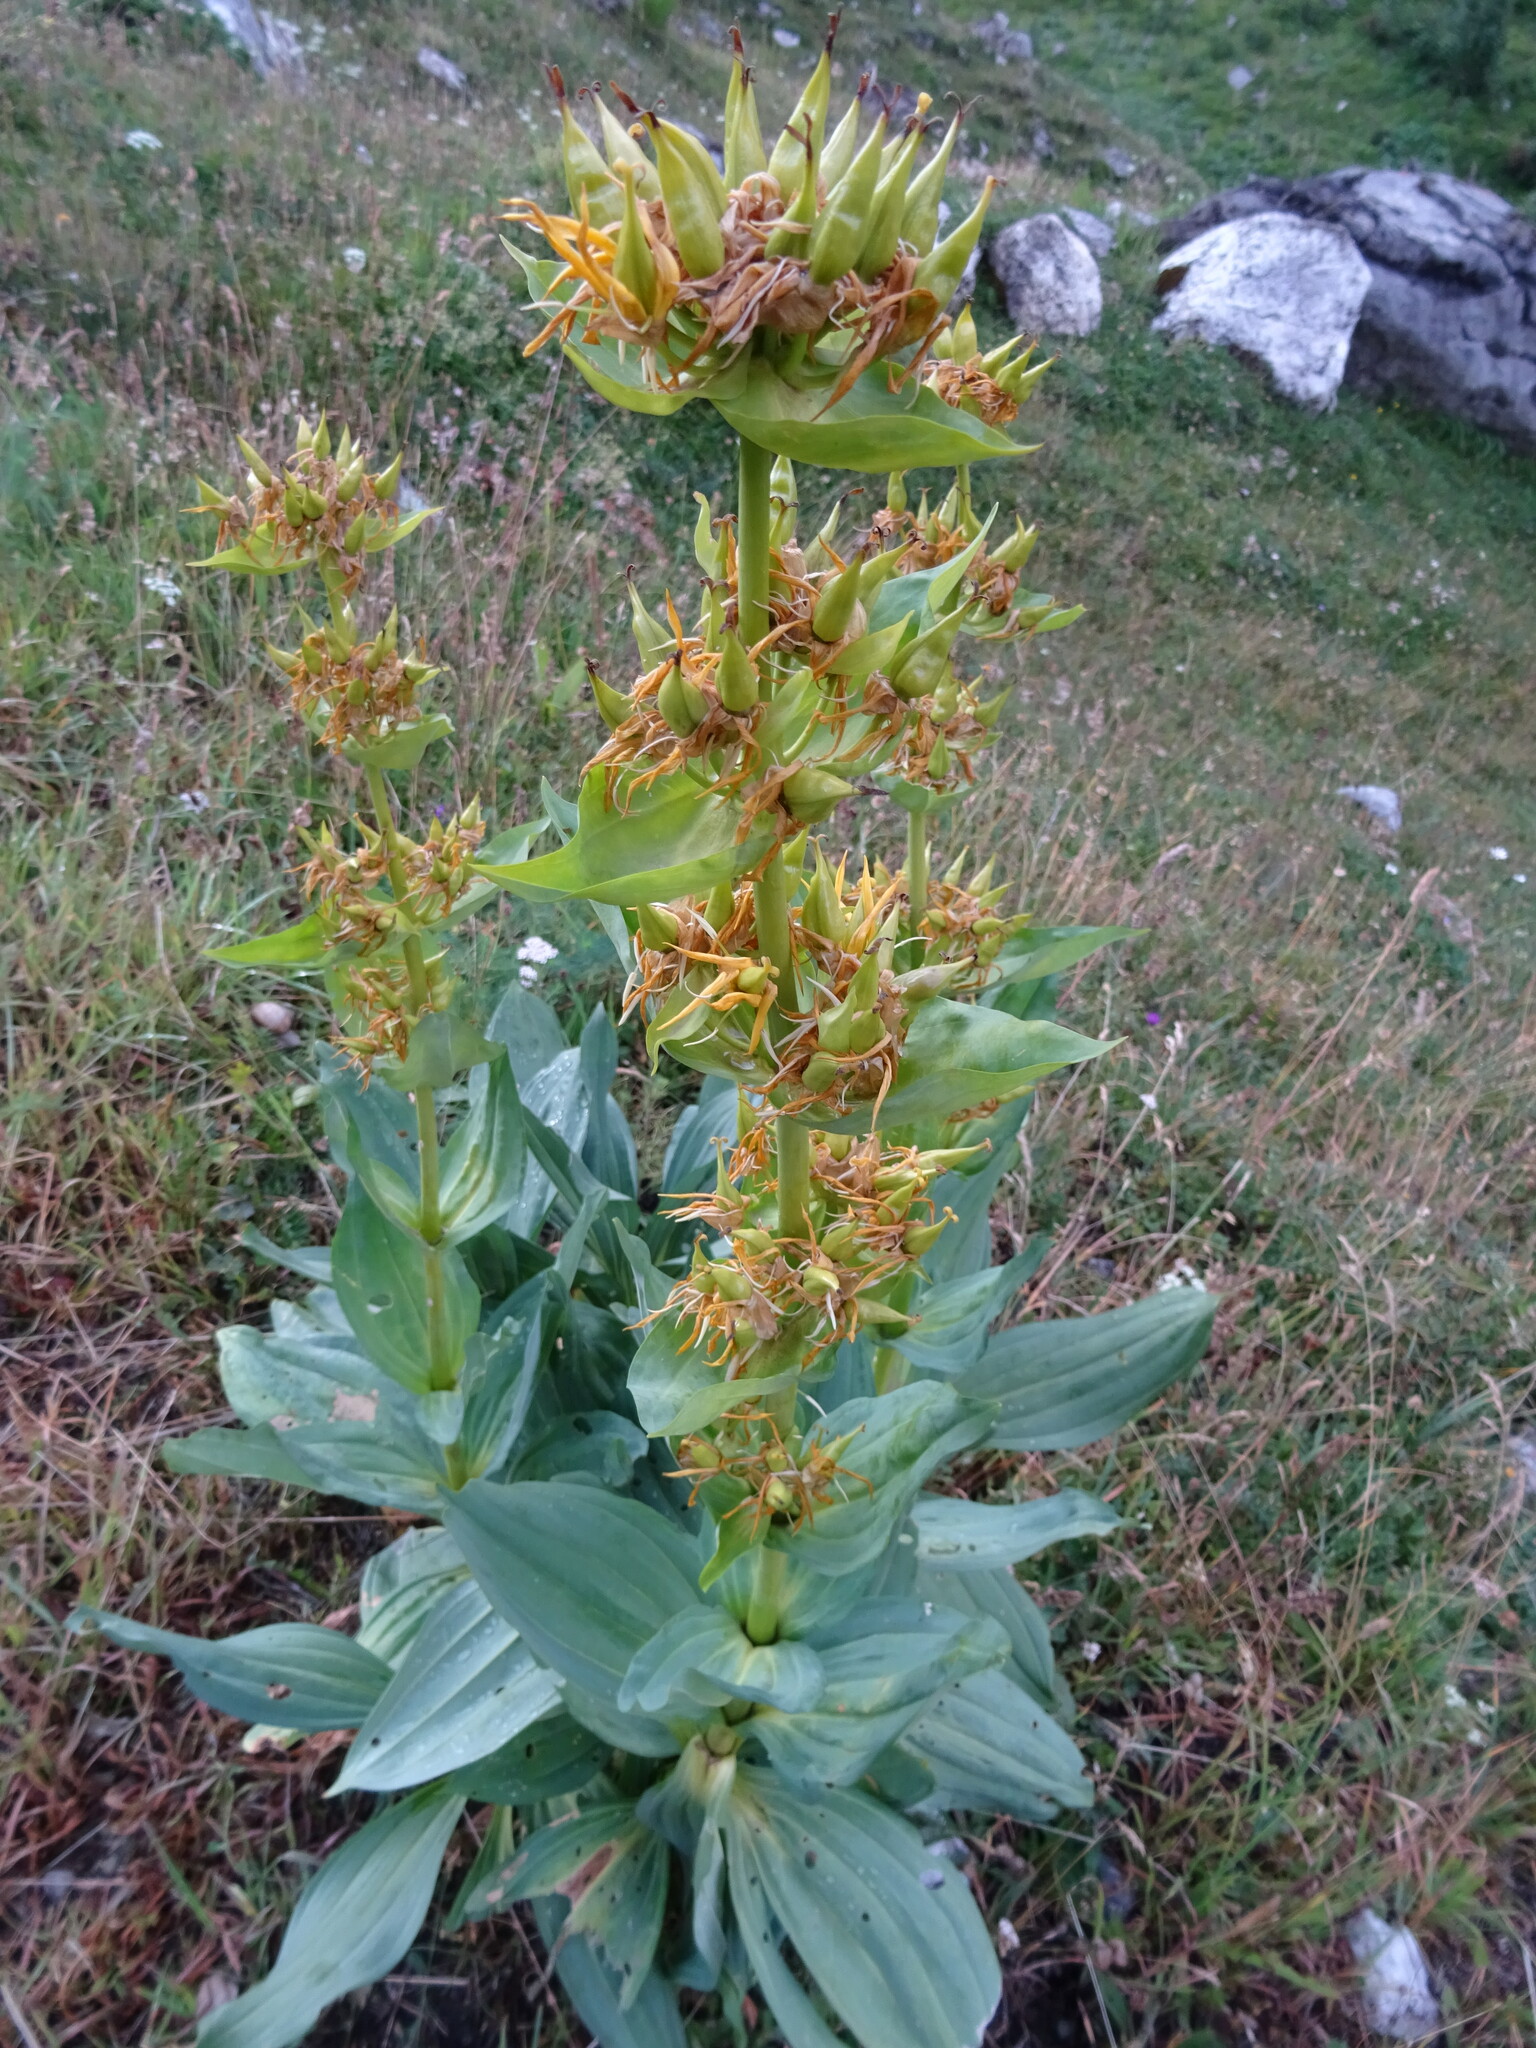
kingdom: Plantae
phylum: Tracheophyta
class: Magnoliopsida
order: Gentianales
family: Gentianaceae
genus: Gentiana
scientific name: Gentiana lutea
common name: Great yellow gentian
